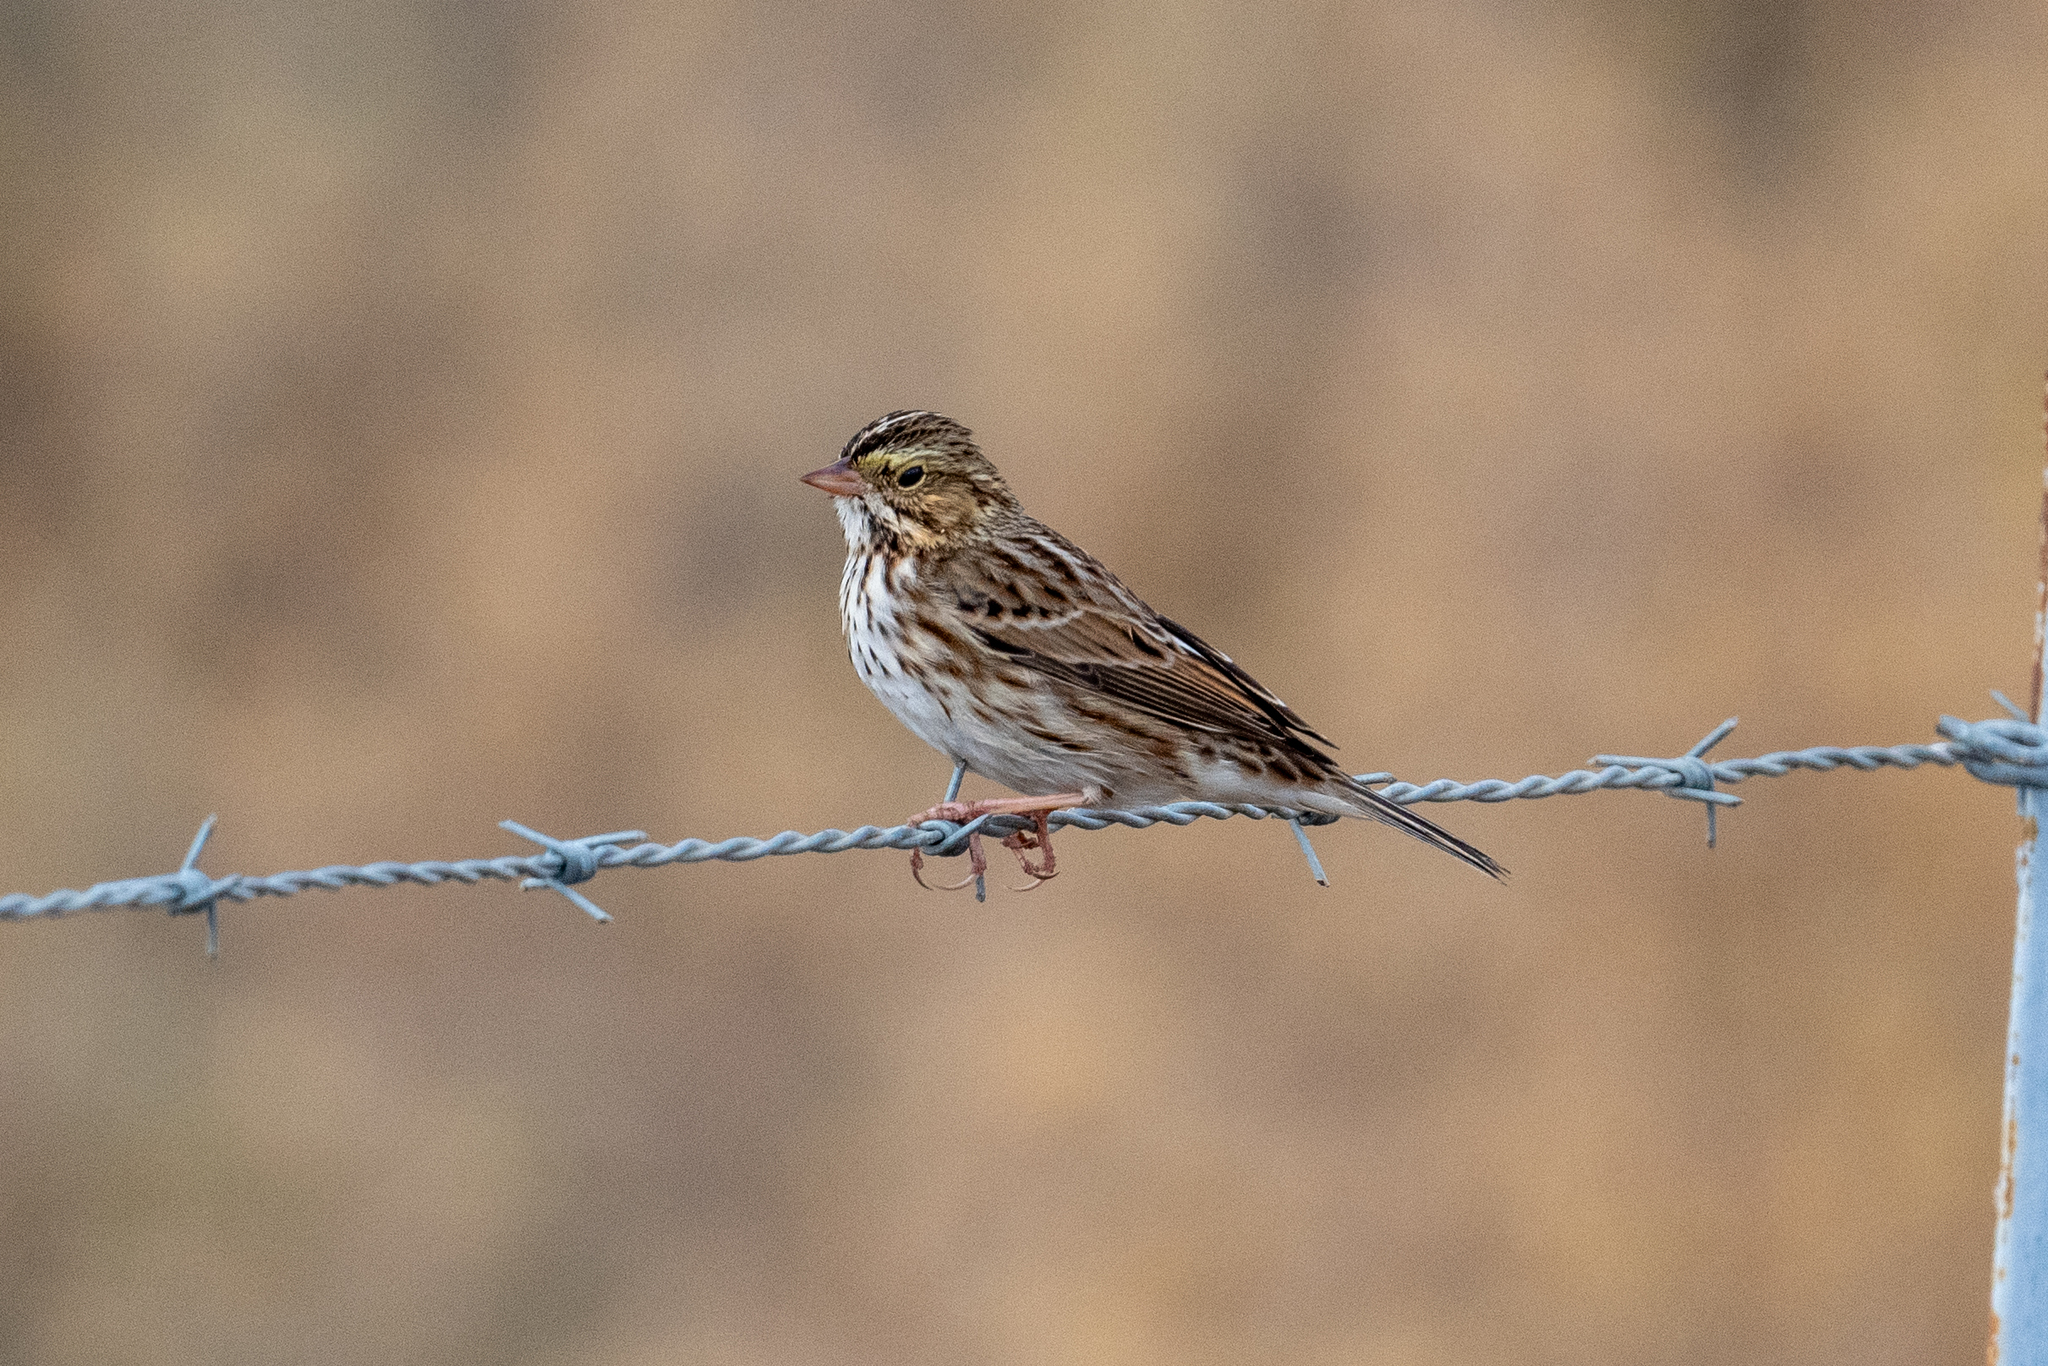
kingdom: Animalia
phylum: Chordata
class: Aves
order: Passeriformes
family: Passerellidae
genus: Passerculus
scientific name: Passerculus sandwichensis
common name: Savannah sparrow
